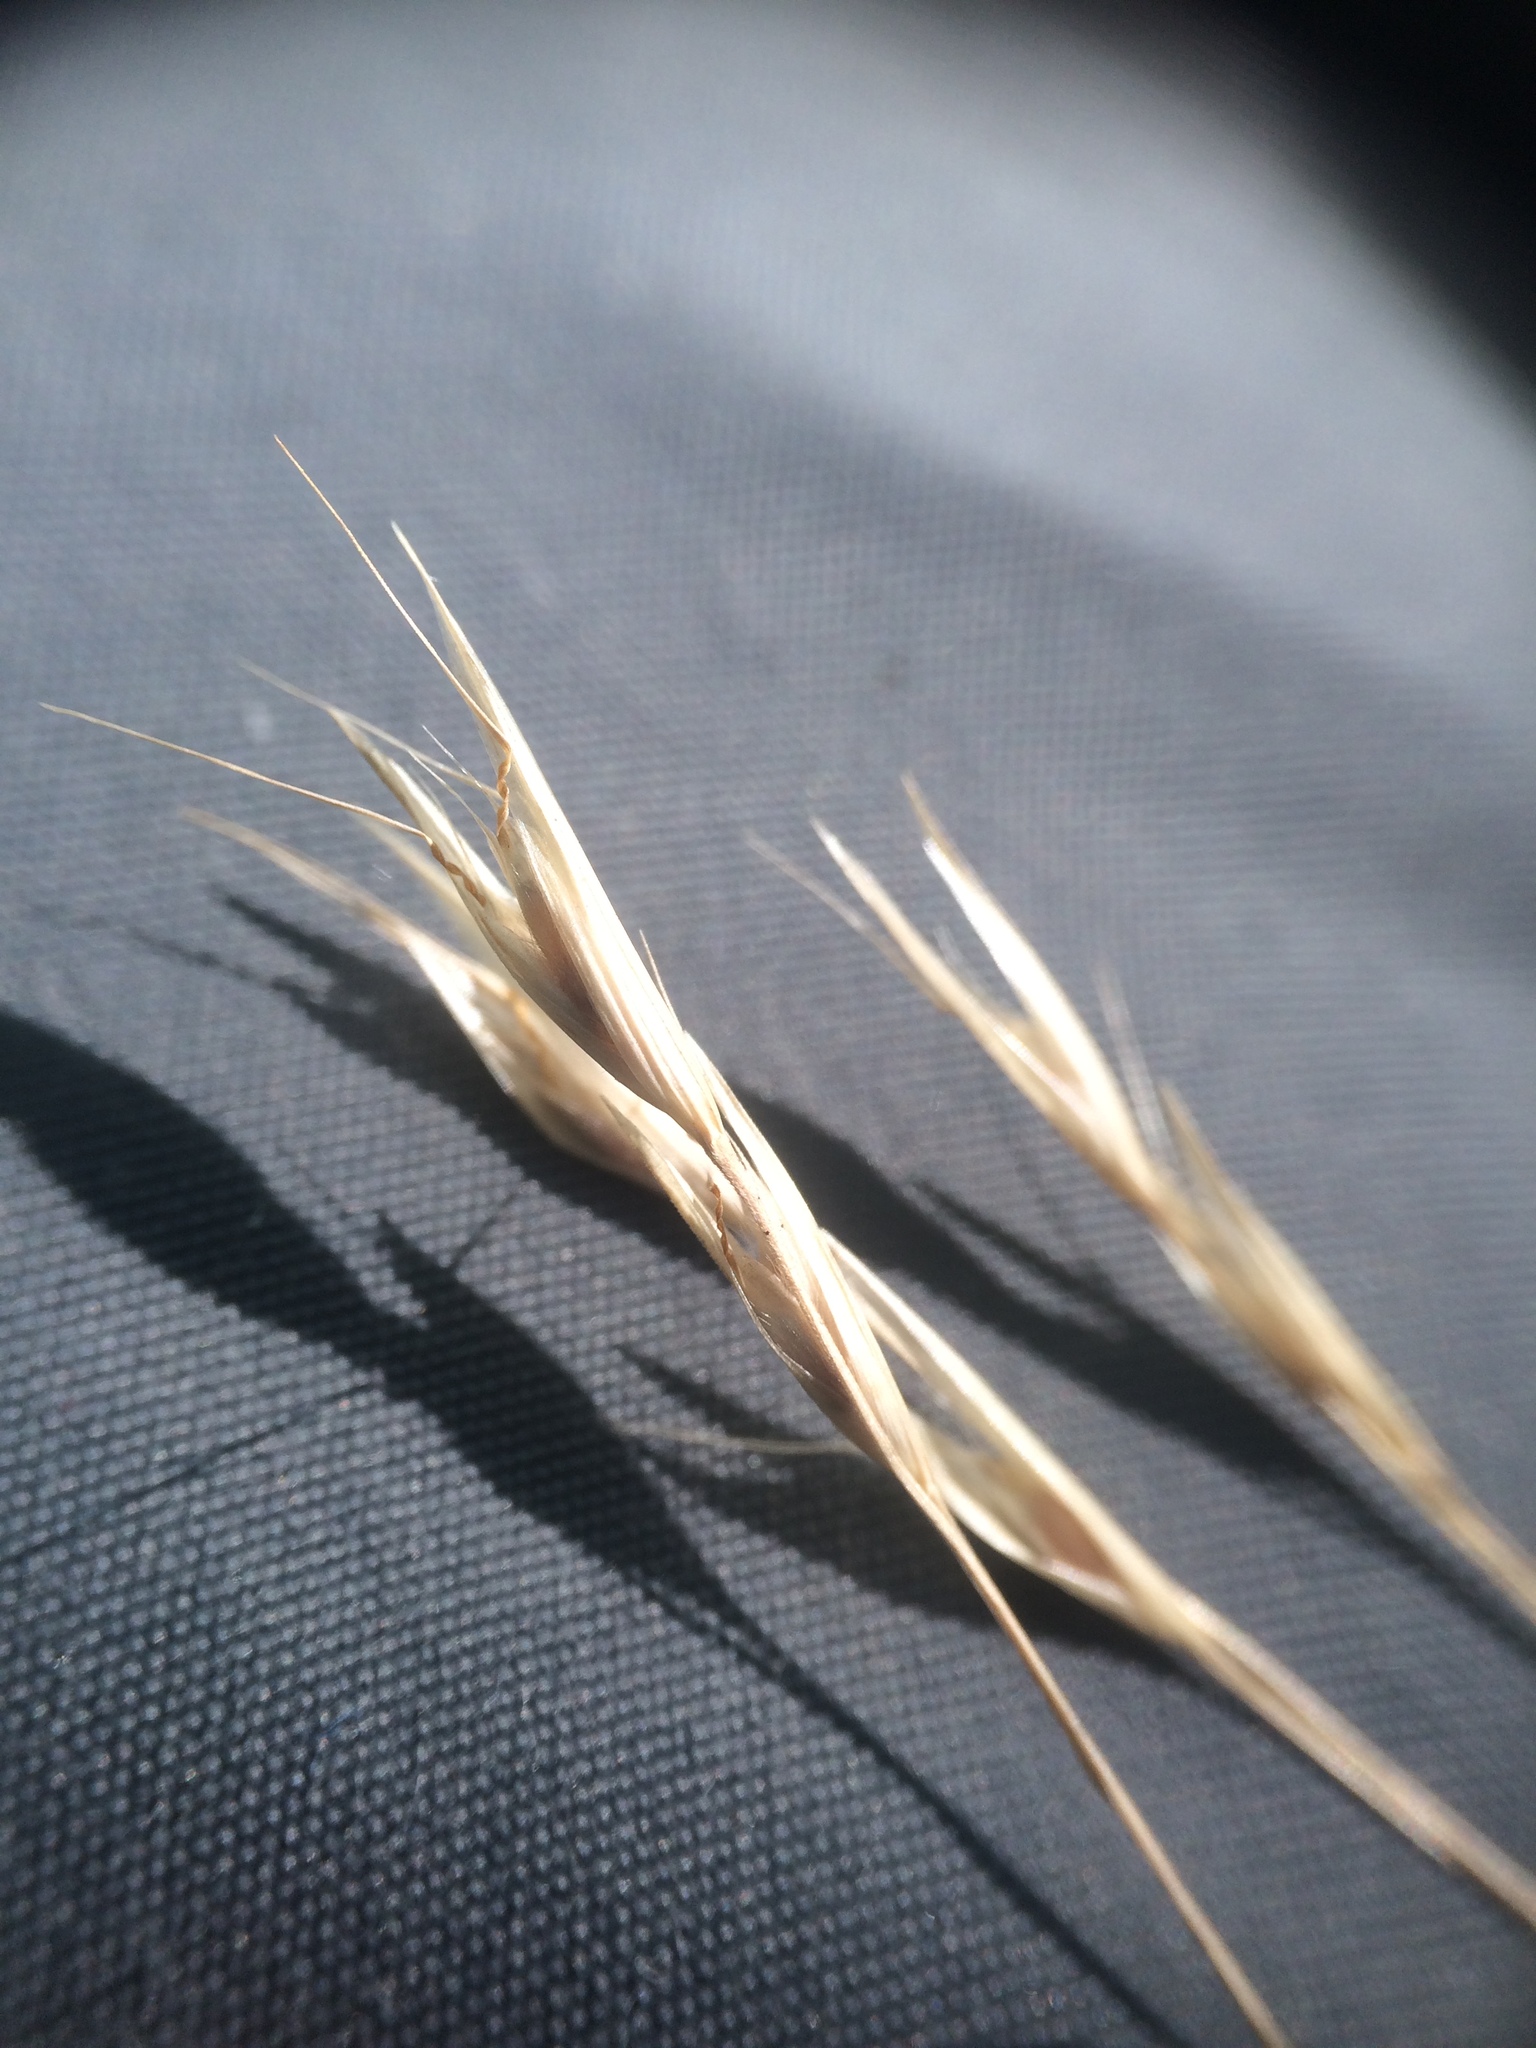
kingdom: Plantae
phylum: Tracheophyta
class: Liliopsida
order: Poales
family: Poaceae
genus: Danthonia
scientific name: Danthonia compressa
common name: Flat-stem oat grass
